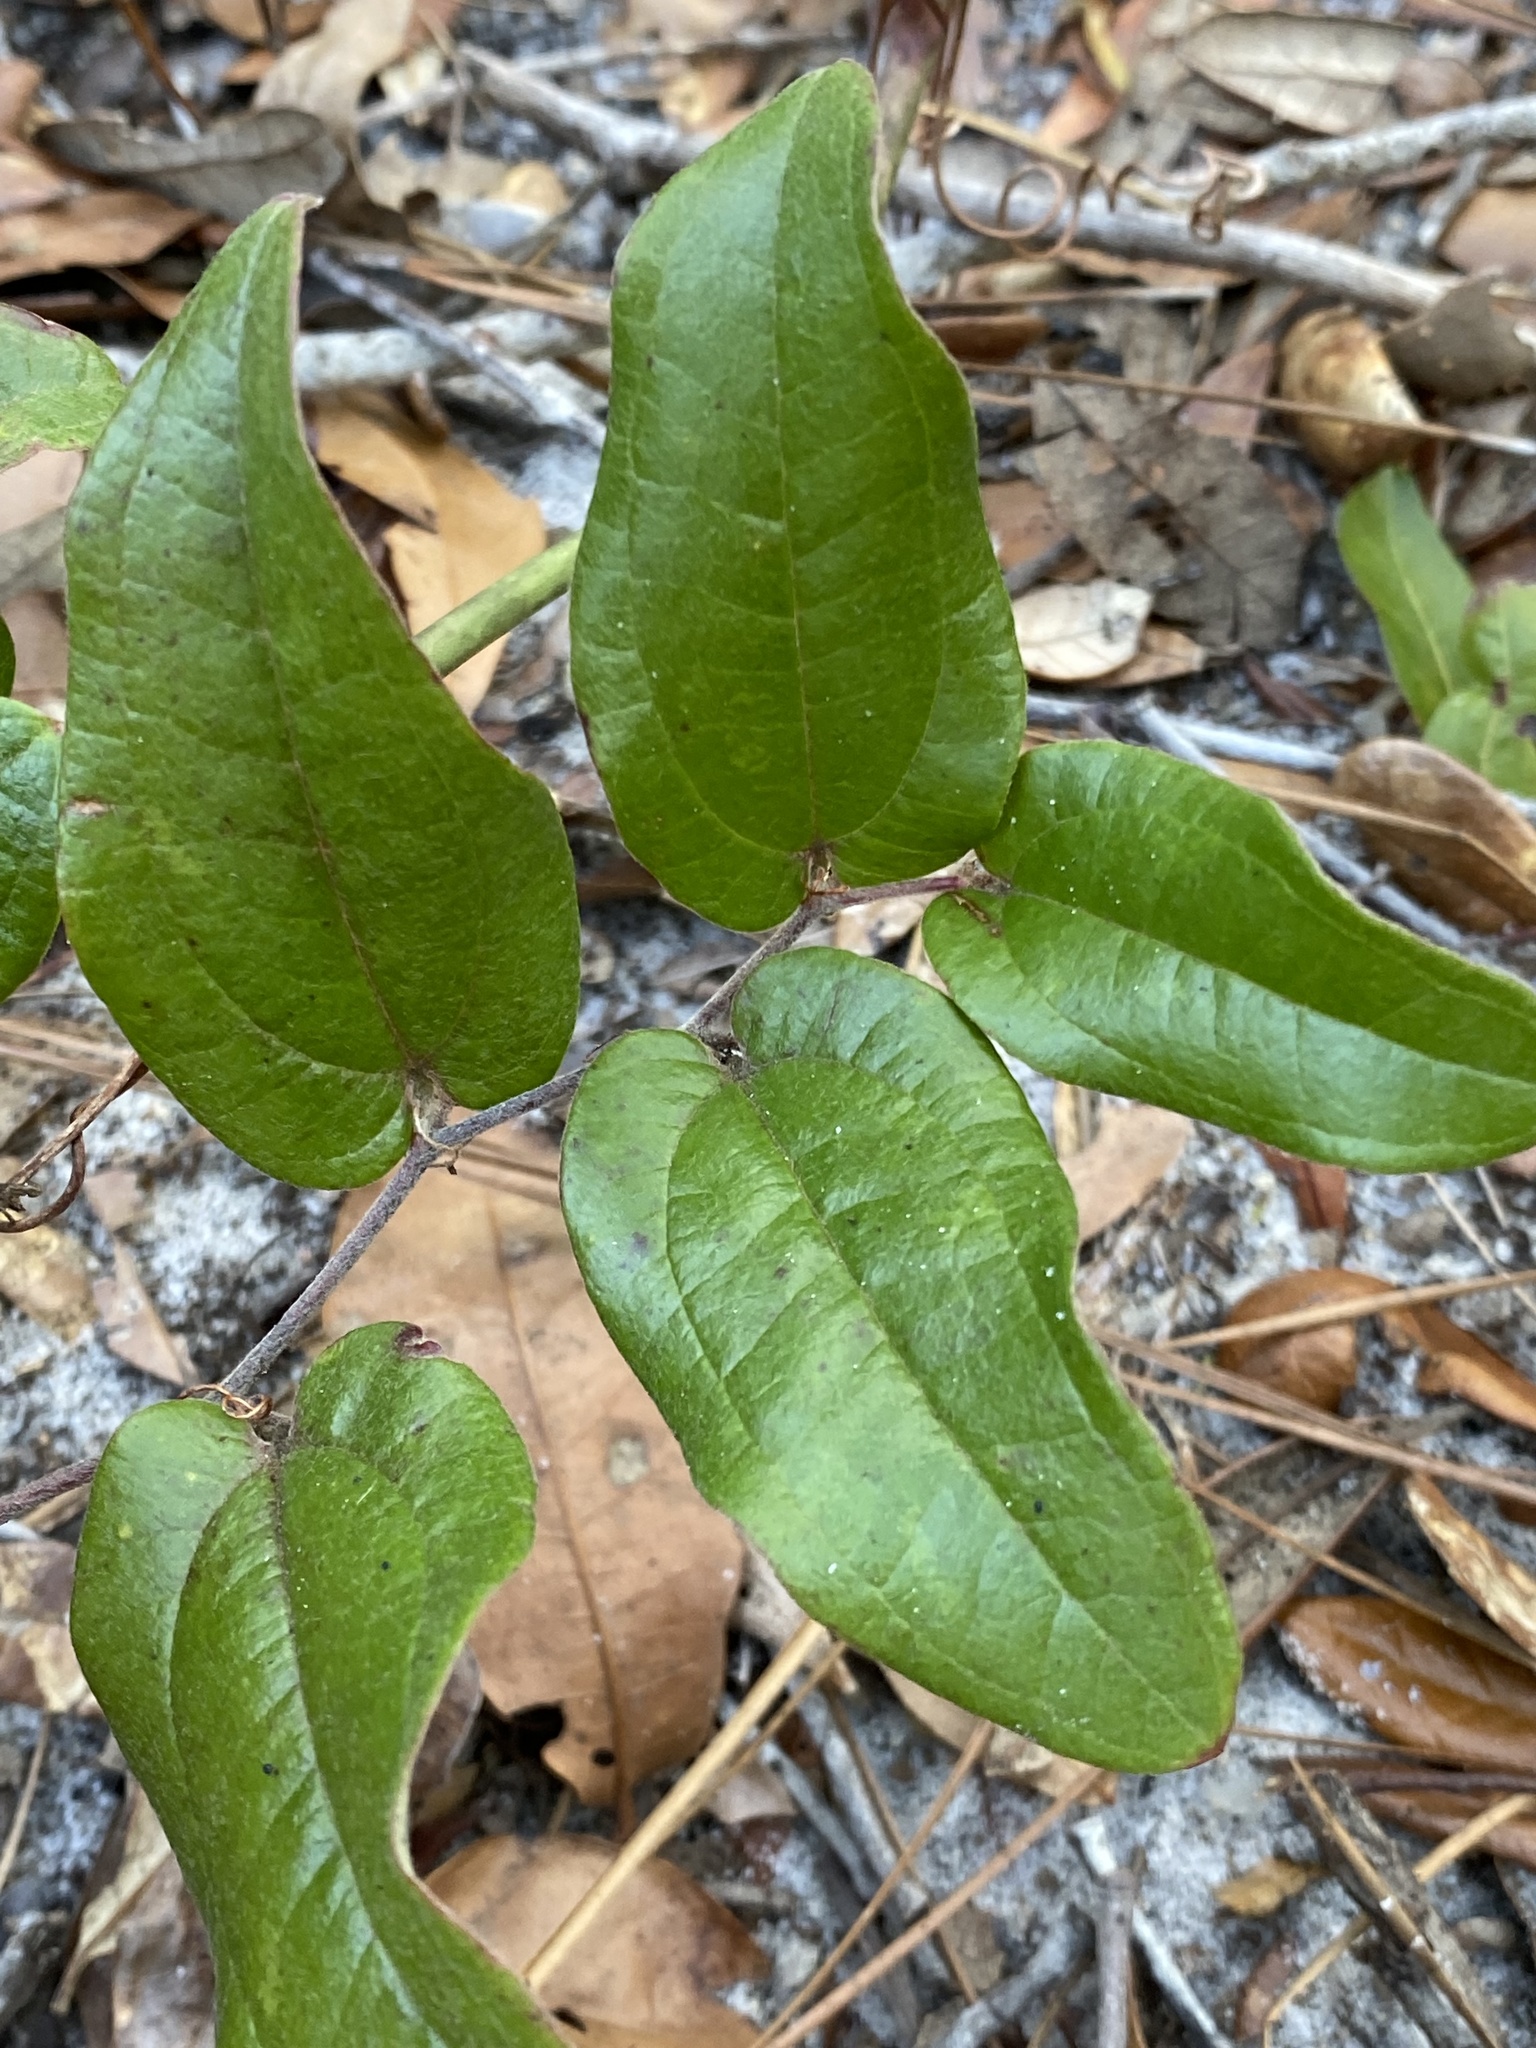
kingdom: Plantae
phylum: Tracheophyta
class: Liliopsida
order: Liliales
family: Smilacaceae
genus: Smilax
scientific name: Smilax pumila
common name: Sarsaparilla-vine
